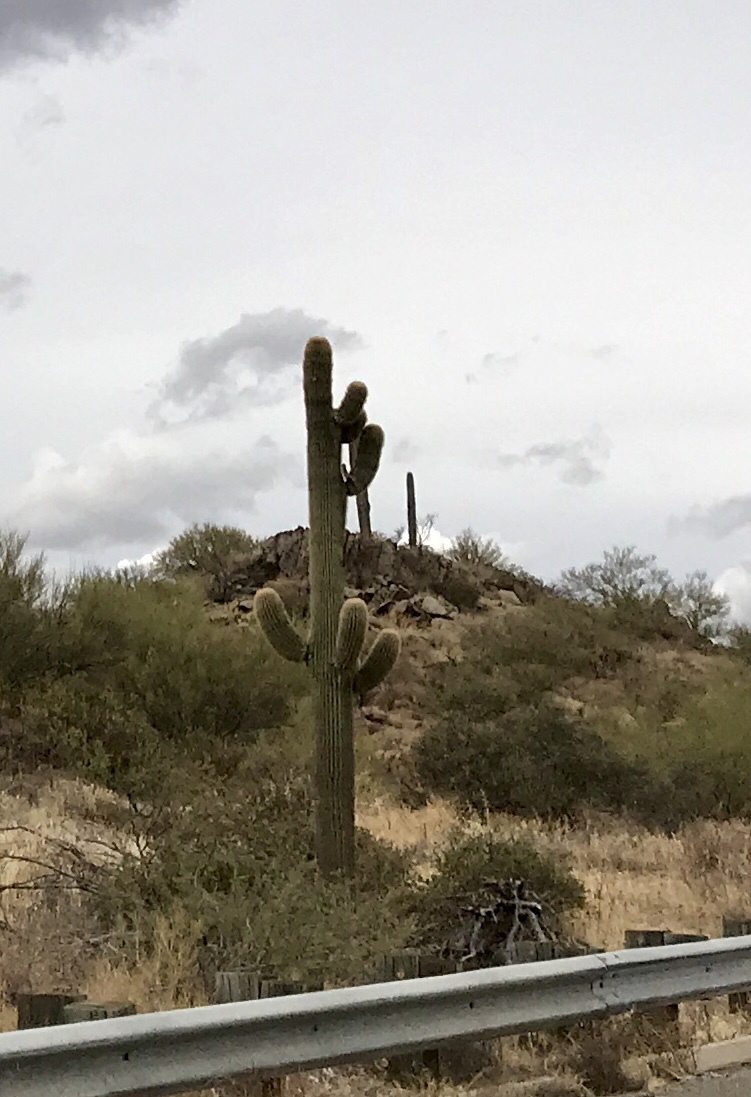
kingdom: Plantae
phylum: Tracheophyta
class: Magnoliopsida
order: Caryophyllales
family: Cactaceae
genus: Carnegiea
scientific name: Carnegiea gigantea
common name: Saguaro
